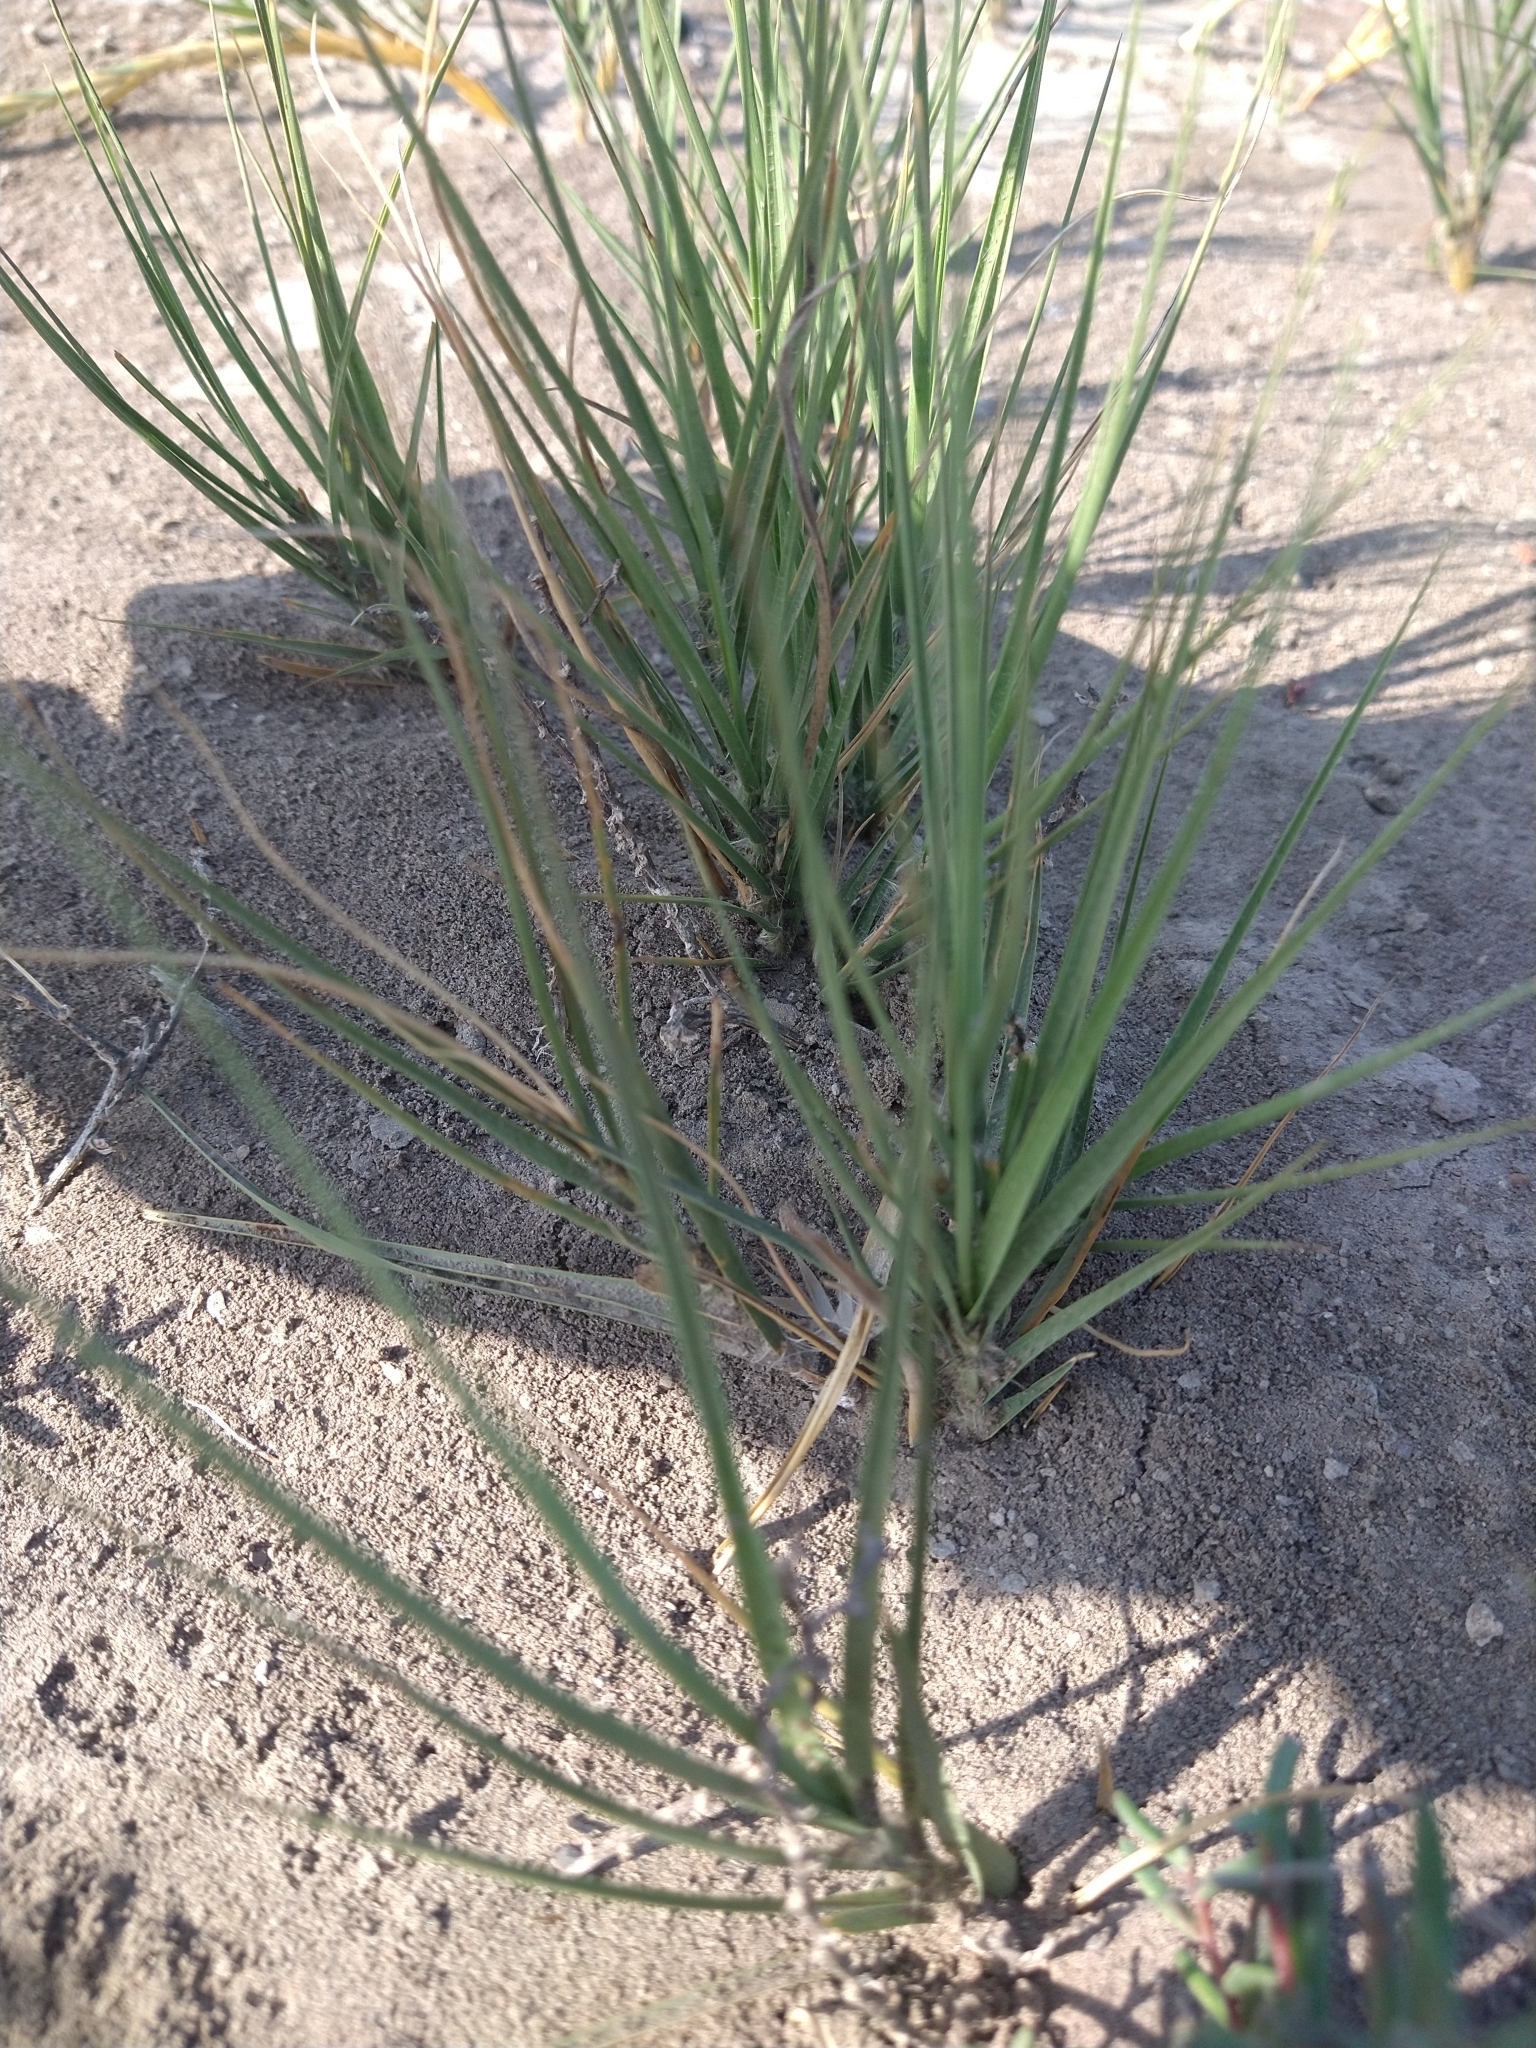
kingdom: Plantae
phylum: Tracheophyta
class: Liliopsida
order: Poales
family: Poaceae
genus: Distichlis
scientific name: Distichlis spicata
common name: Saltgrass
